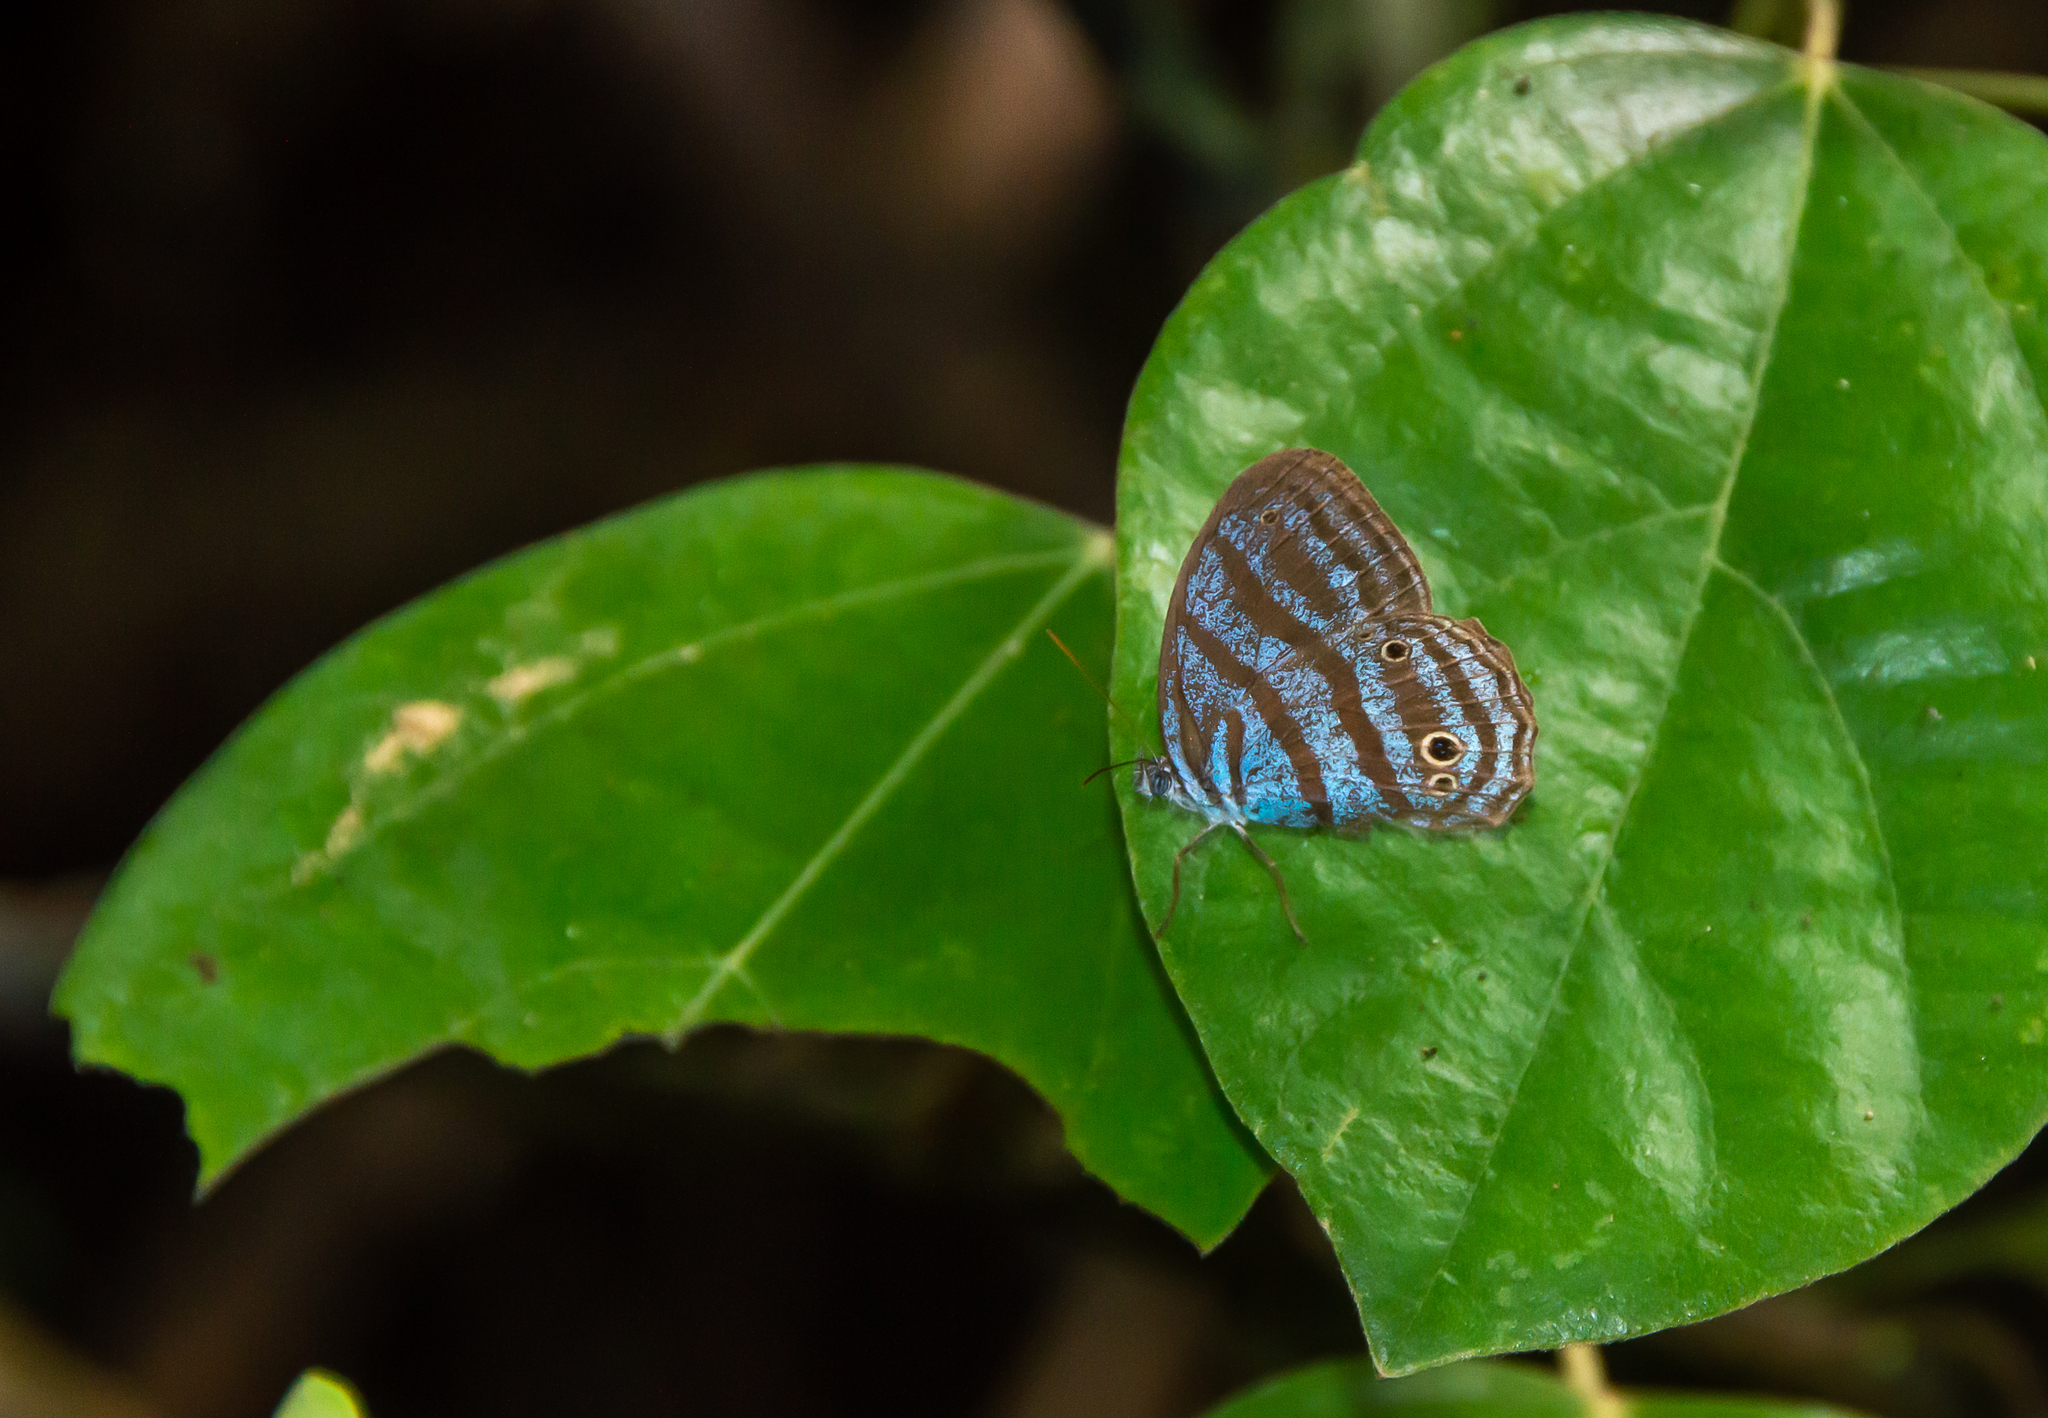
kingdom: Animalia
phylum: Arthropoda
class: Insecta
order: Lepidoptera
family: Nymphalidae
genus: Cepheuptychia
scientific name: Cepheuptychia cephus
